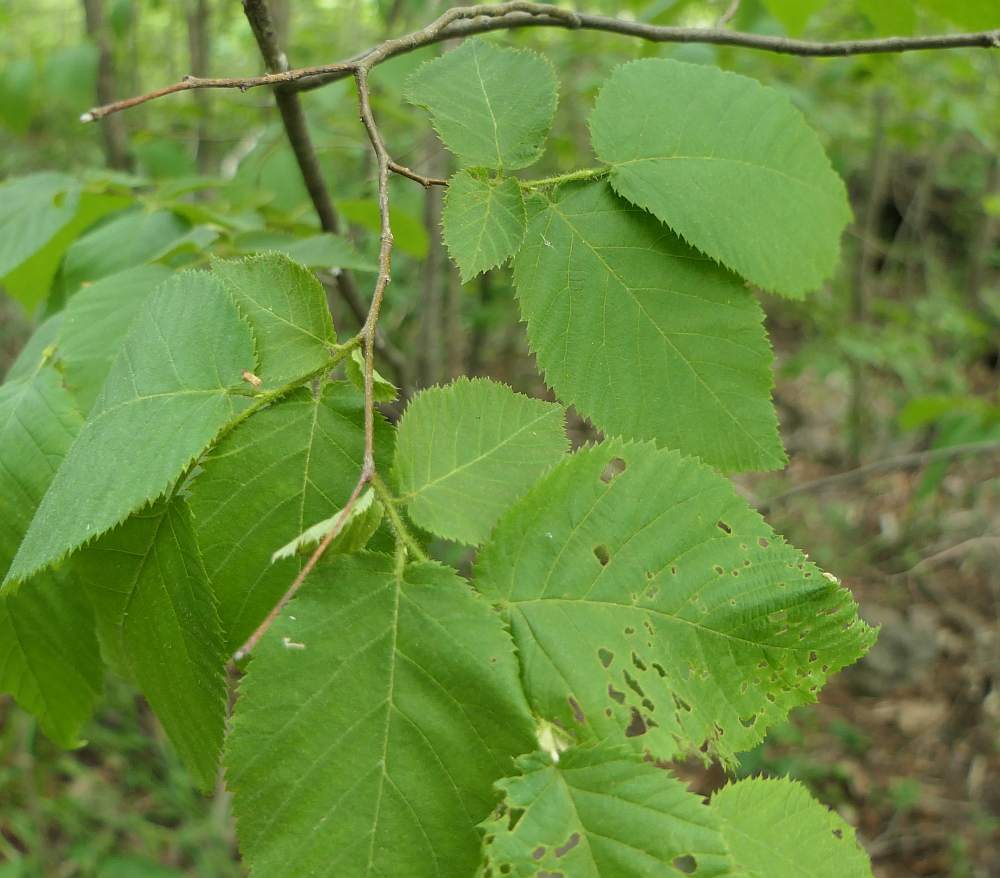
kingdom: Plantae
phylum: Tracheophyta
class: Magnoliopsida
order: Fagales
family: Betulaceae
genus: Ostrya
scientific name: Ostrya virginiana
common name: Ironwood
